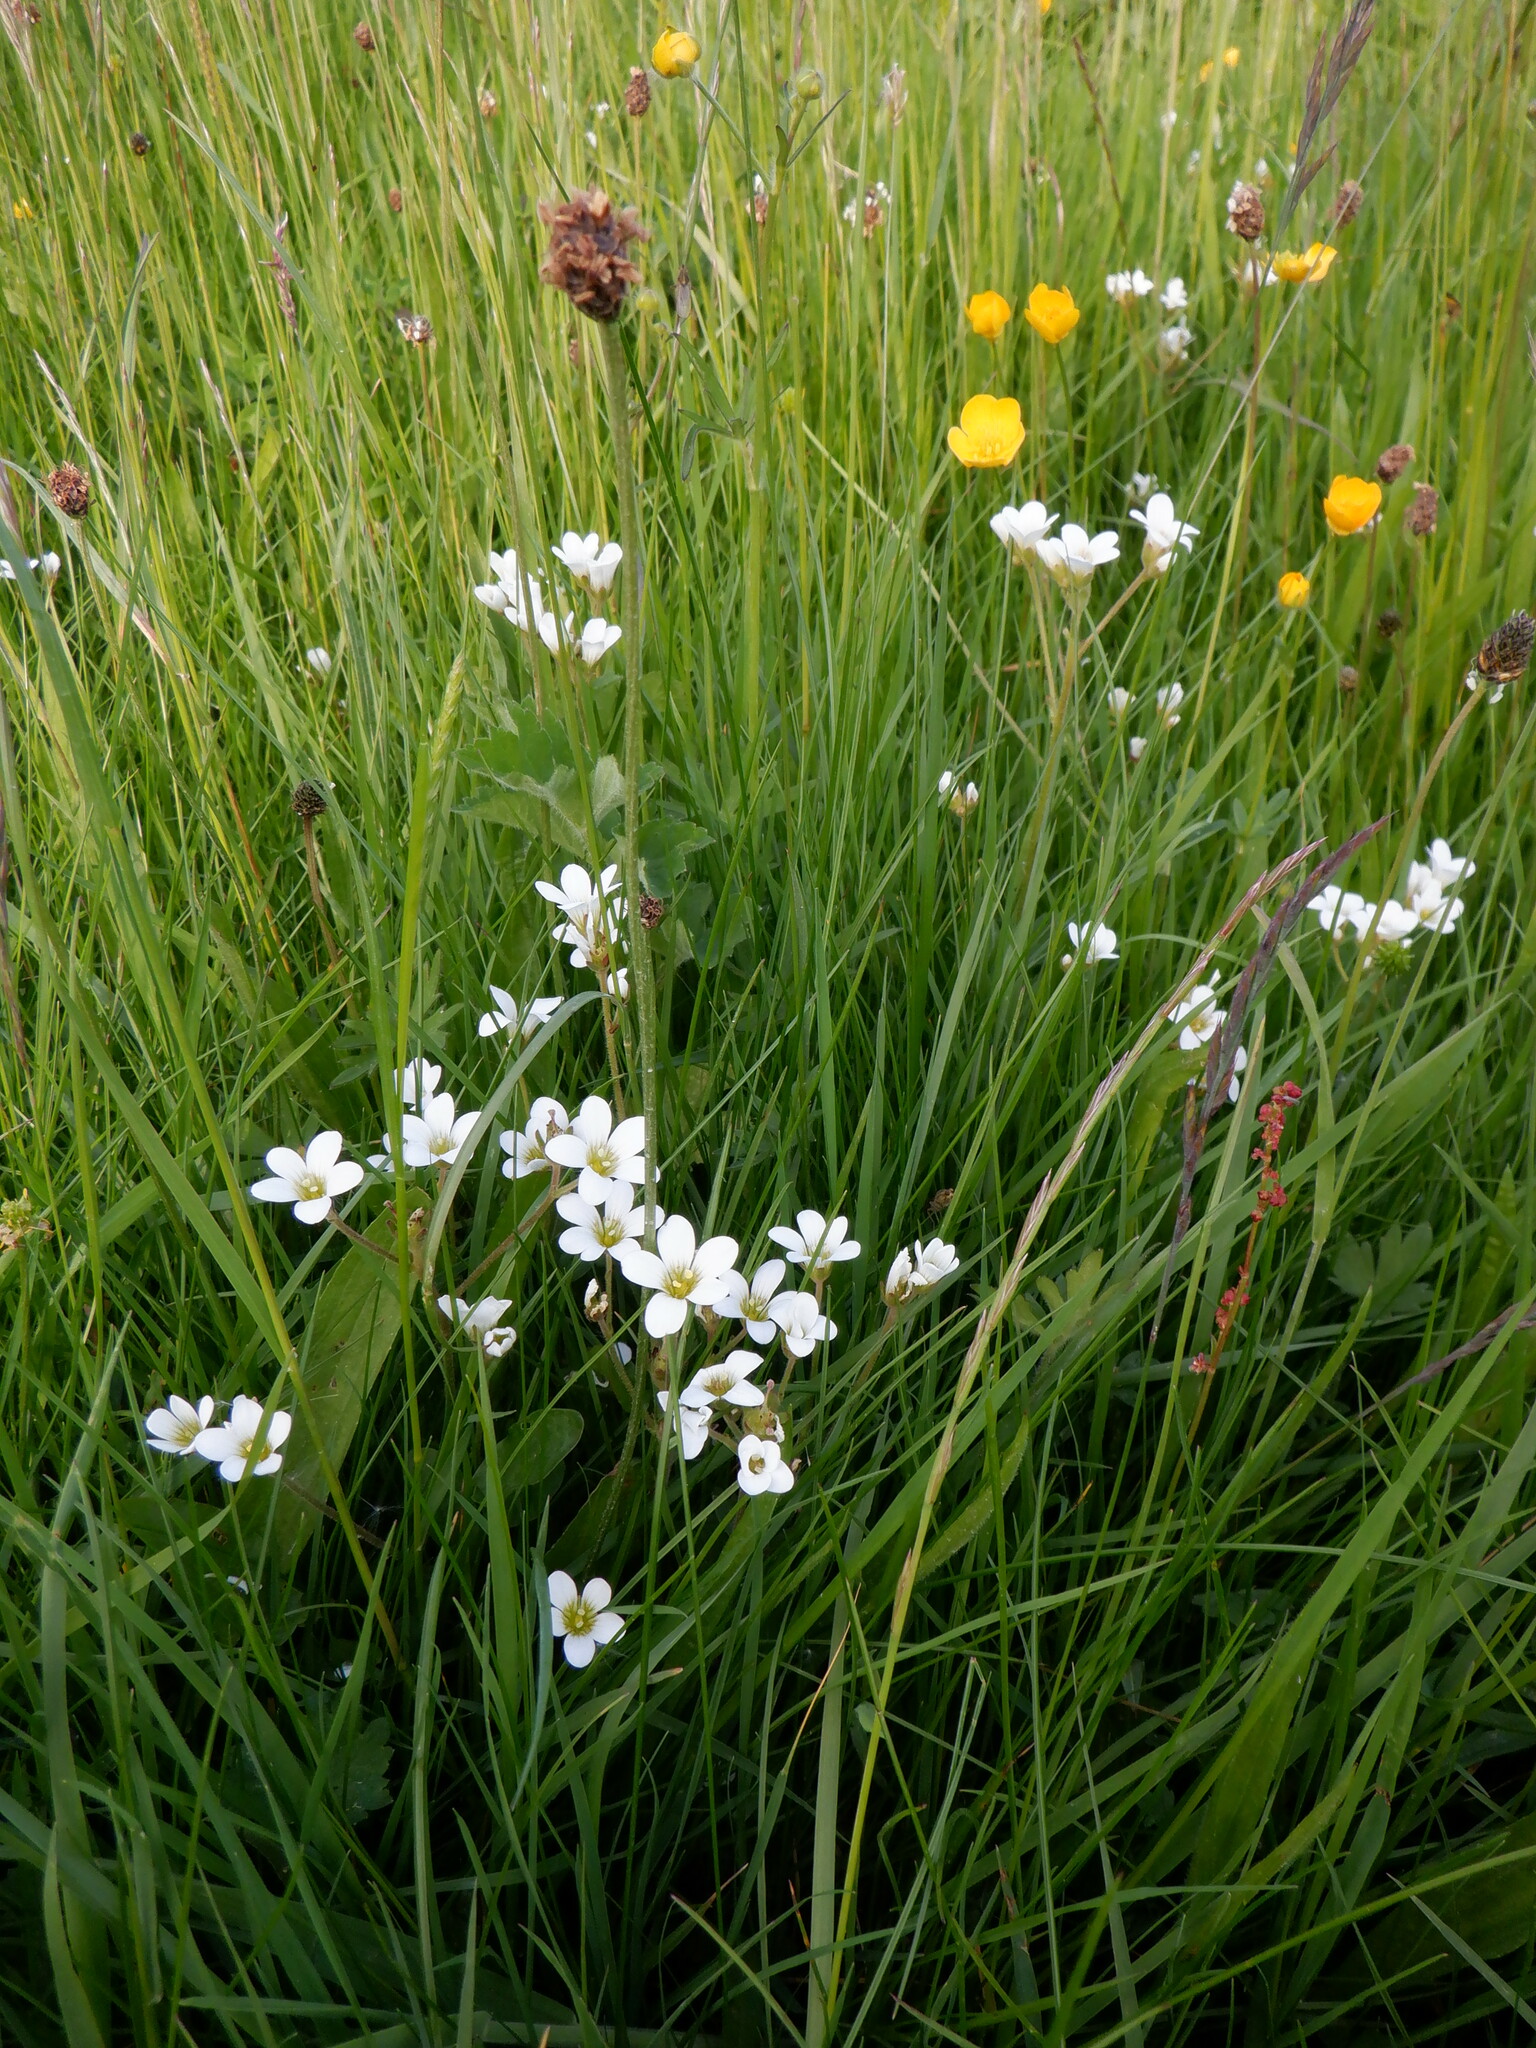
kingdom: Plantae
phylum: Tracheophyta
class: Magnoliopsida
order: Saxifragales
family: Saxifragaceae
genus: Saxifraga
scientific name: Saxifraga granulata
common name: Meadow saxifrage
